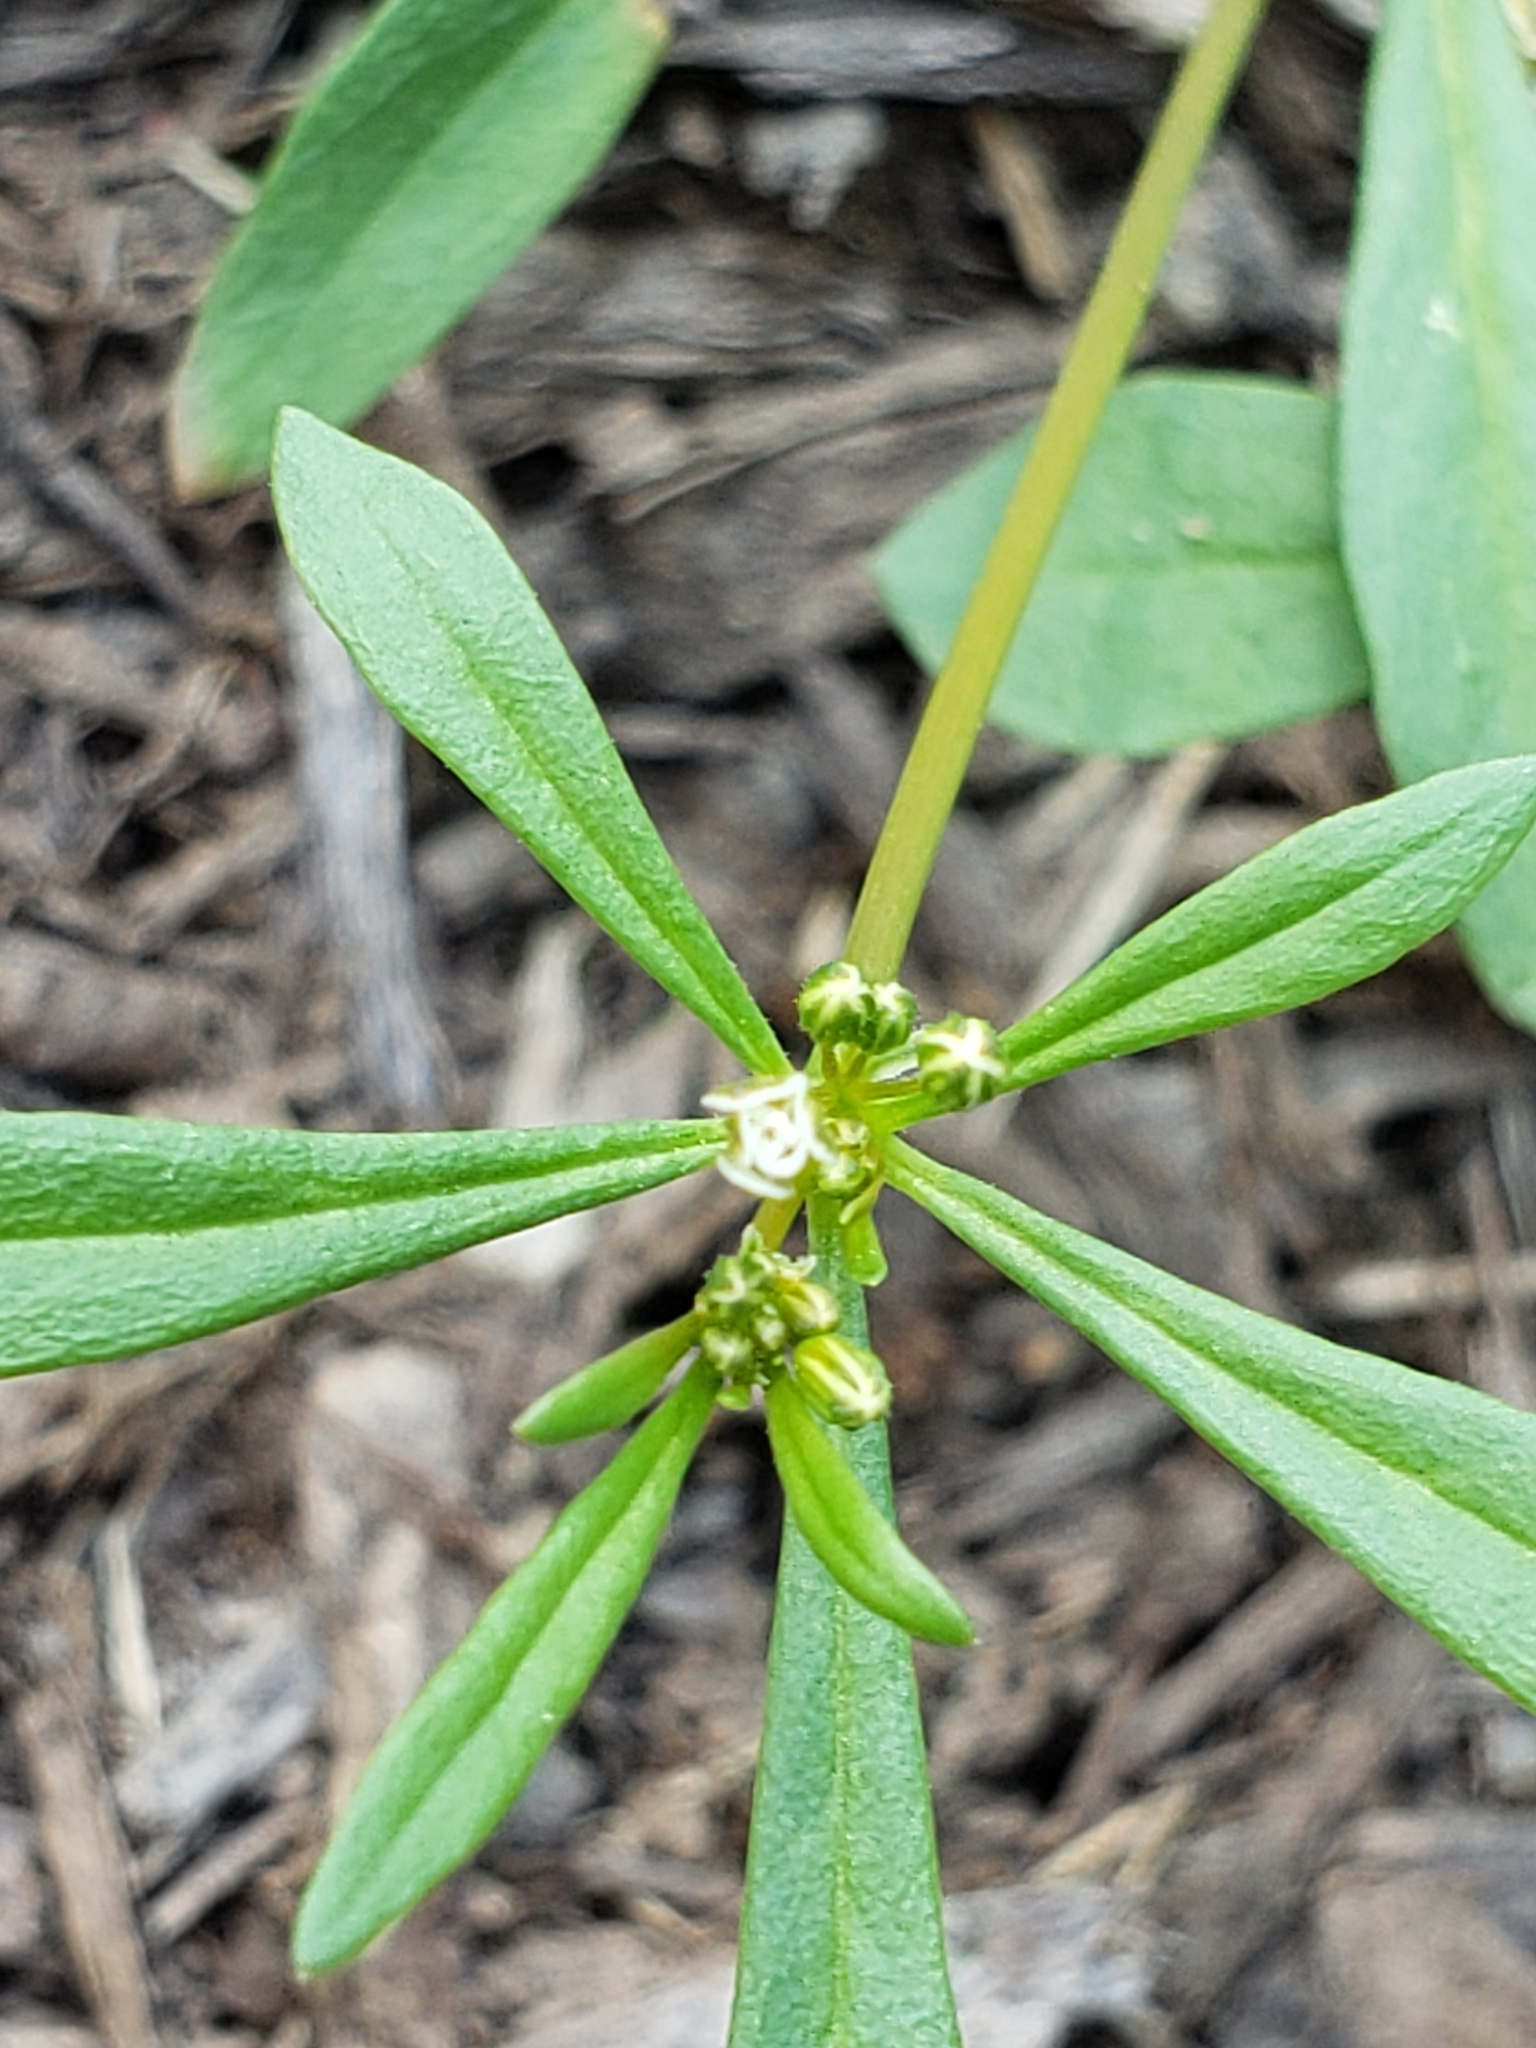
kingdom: Plantae
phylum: Tracheophyta
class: Magnoliopsida
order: Caryophyllales
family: Molluginaceae
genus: Mollugo
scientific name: Mollugo verticillata
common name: Green carpetweed
